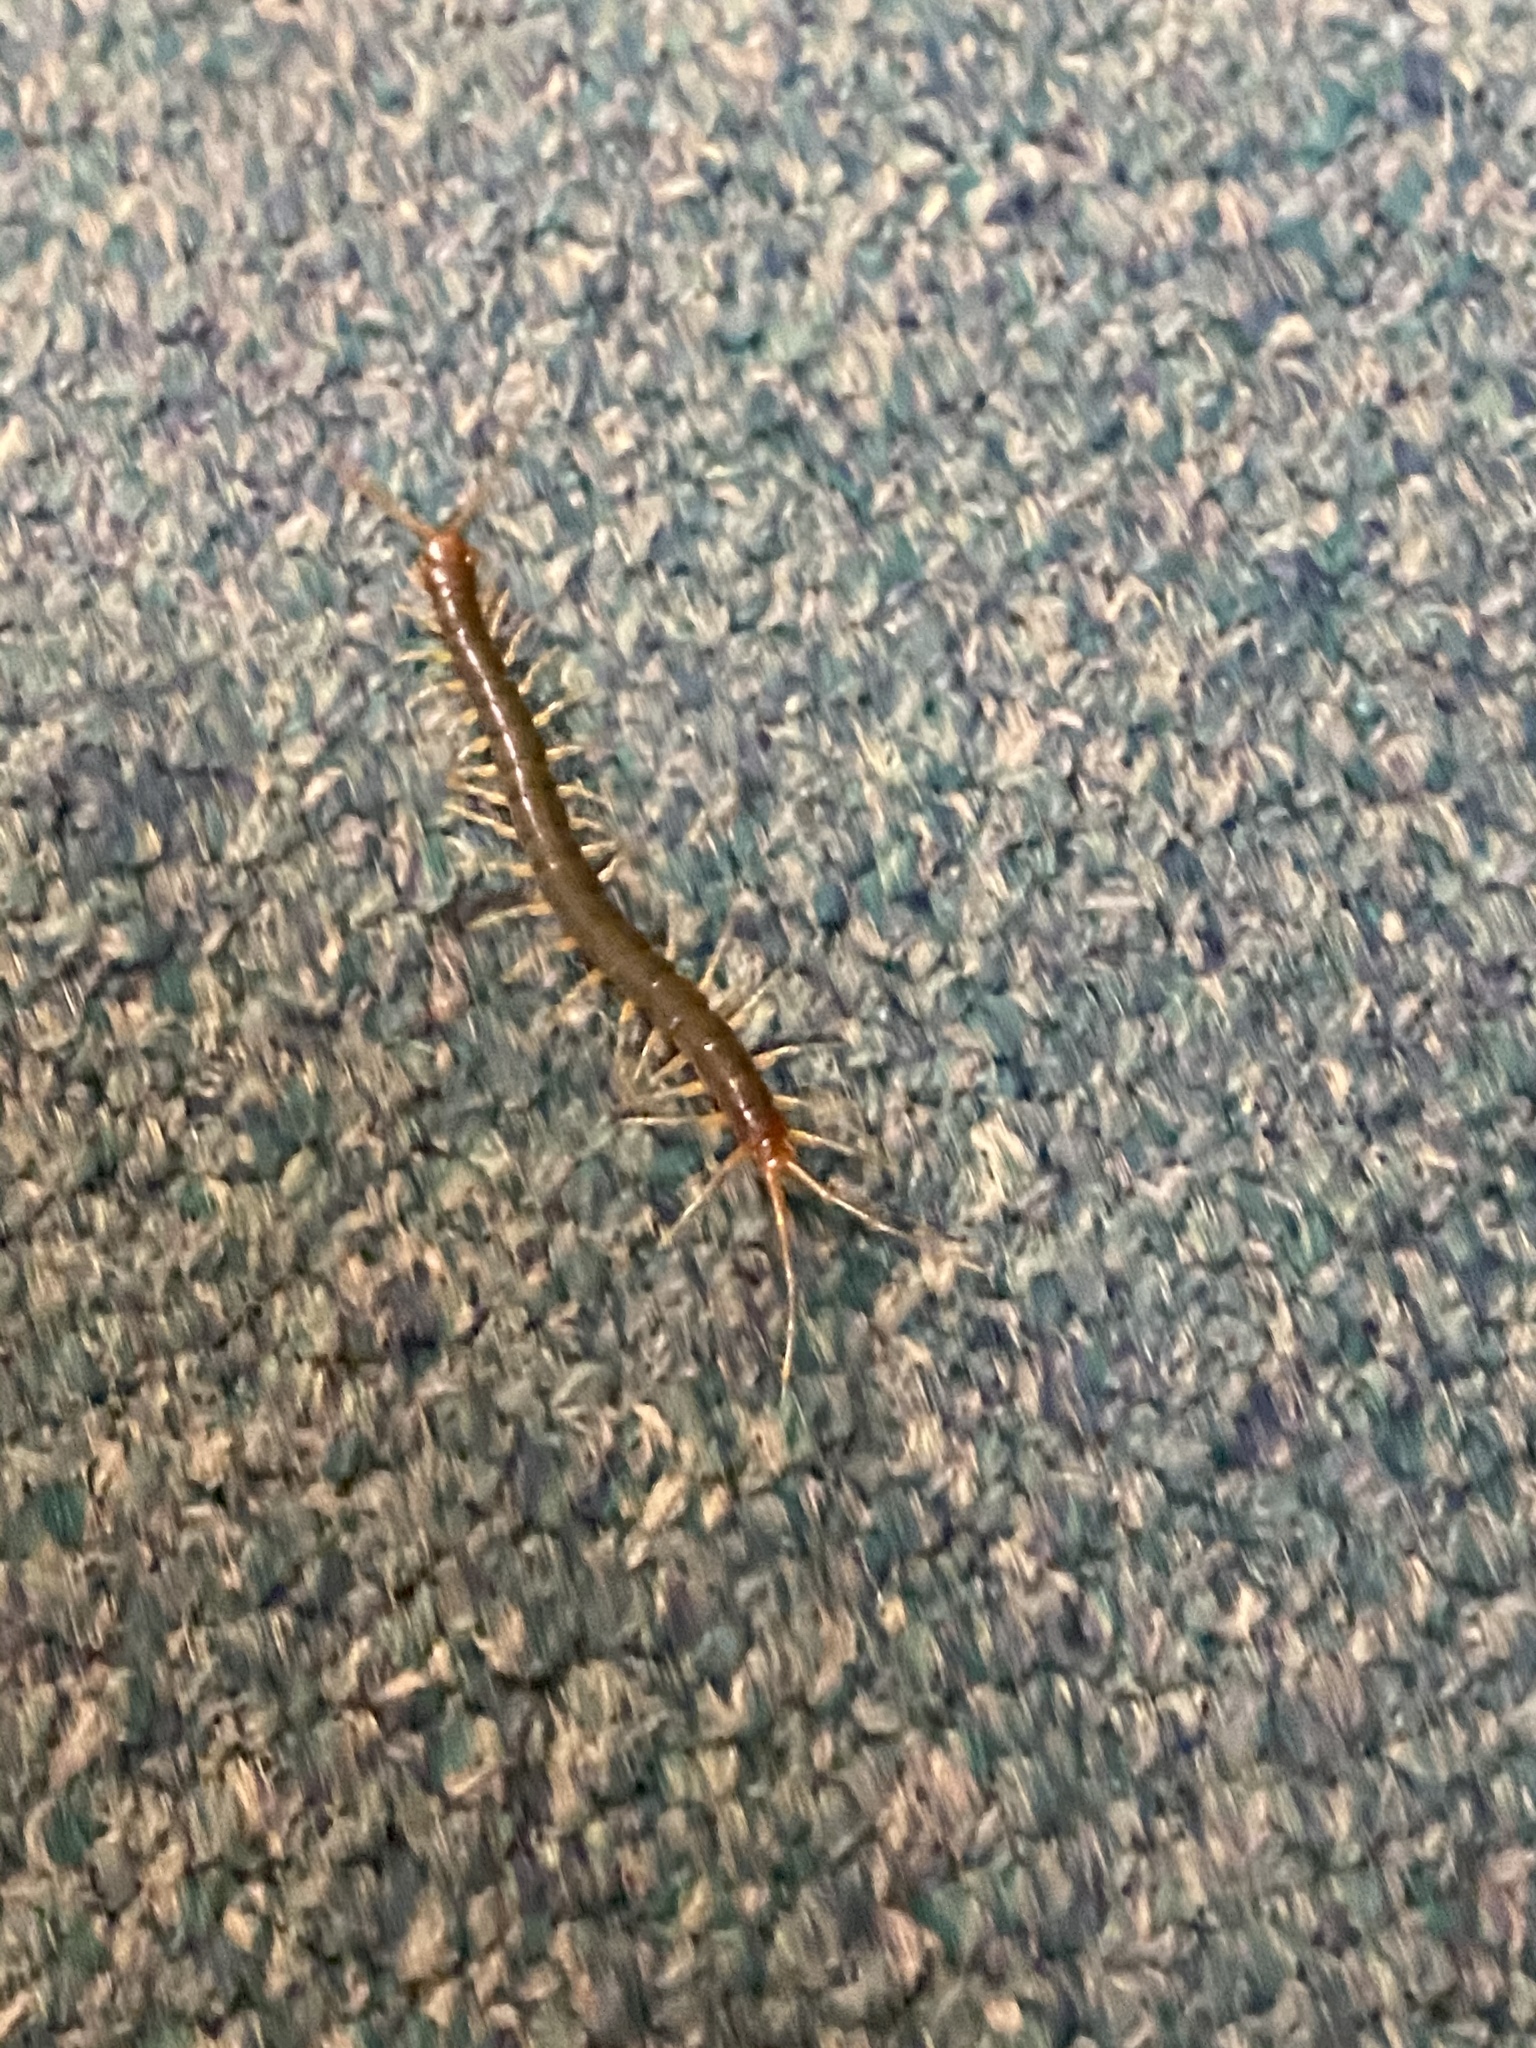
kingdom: Animalia
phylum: Arthropoda
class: Chilopoda
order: Scolopendromorpha
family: Scolopendridae
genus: Rhysida
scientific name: Rhysida longipes
